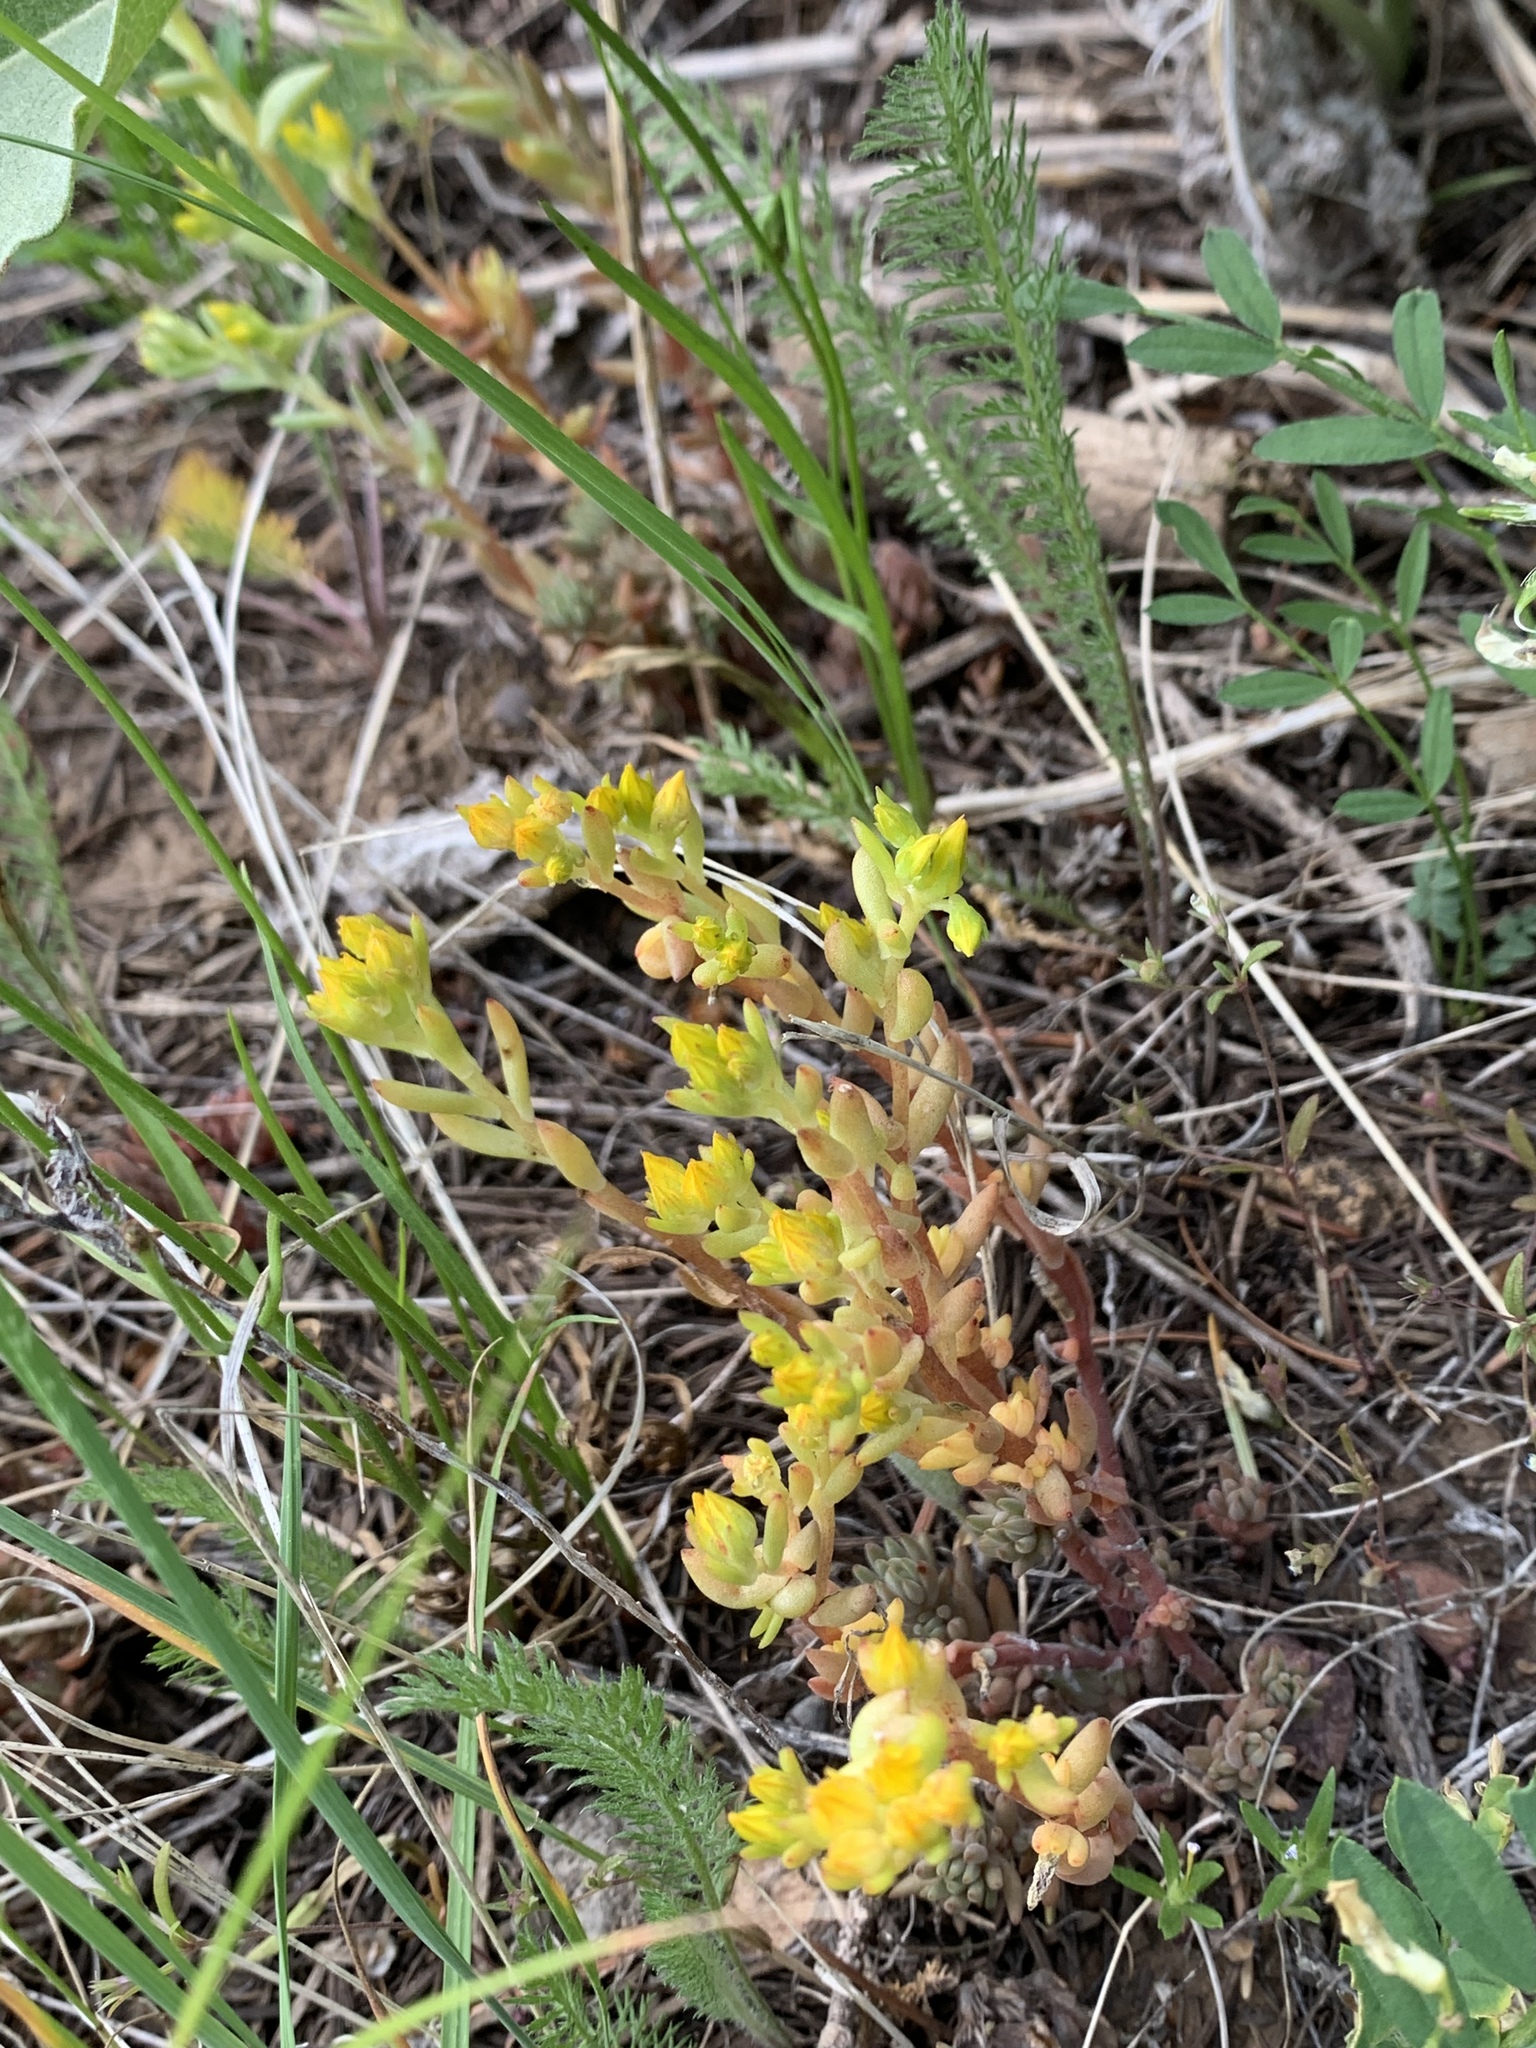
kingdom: Plantae
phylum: Tracheophyta
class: Magnoliopsida
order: Saxifragales
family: Crassulaceae
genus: Sedum
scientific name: Sedum lanceolatum
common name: Common stonecrop
